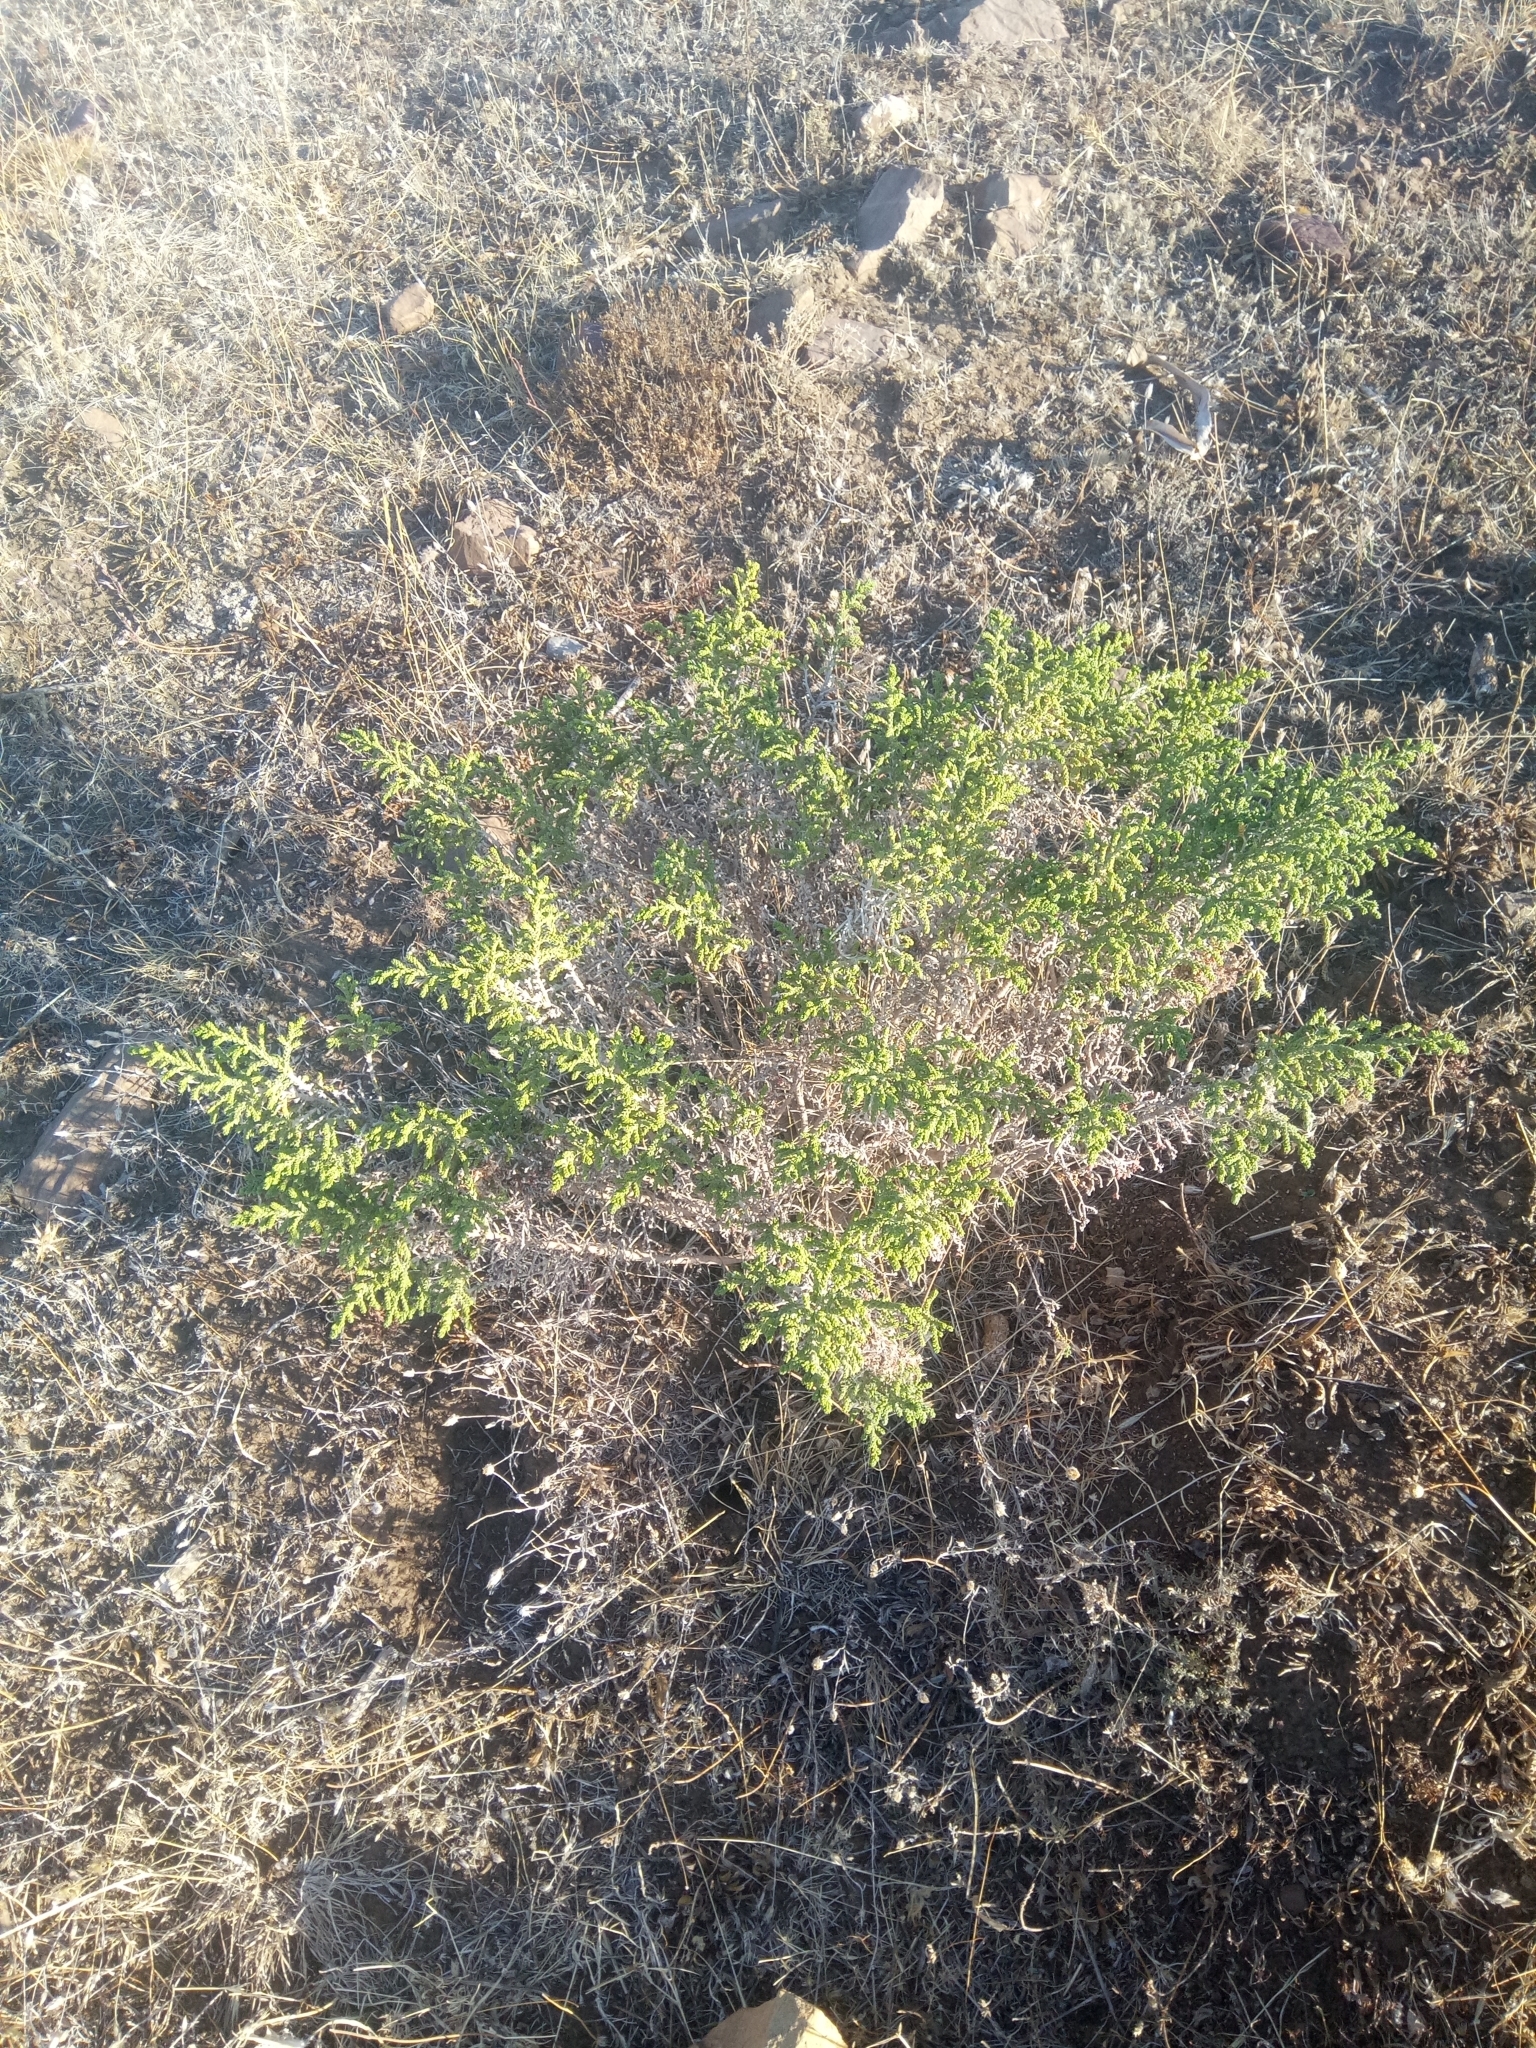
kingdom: Plantae
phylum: Tracheophyta
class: Magnoliopsida
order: Malvales
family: Thymelaeaceae
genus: Thymelaea
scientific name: Thymelaea hirsuta
